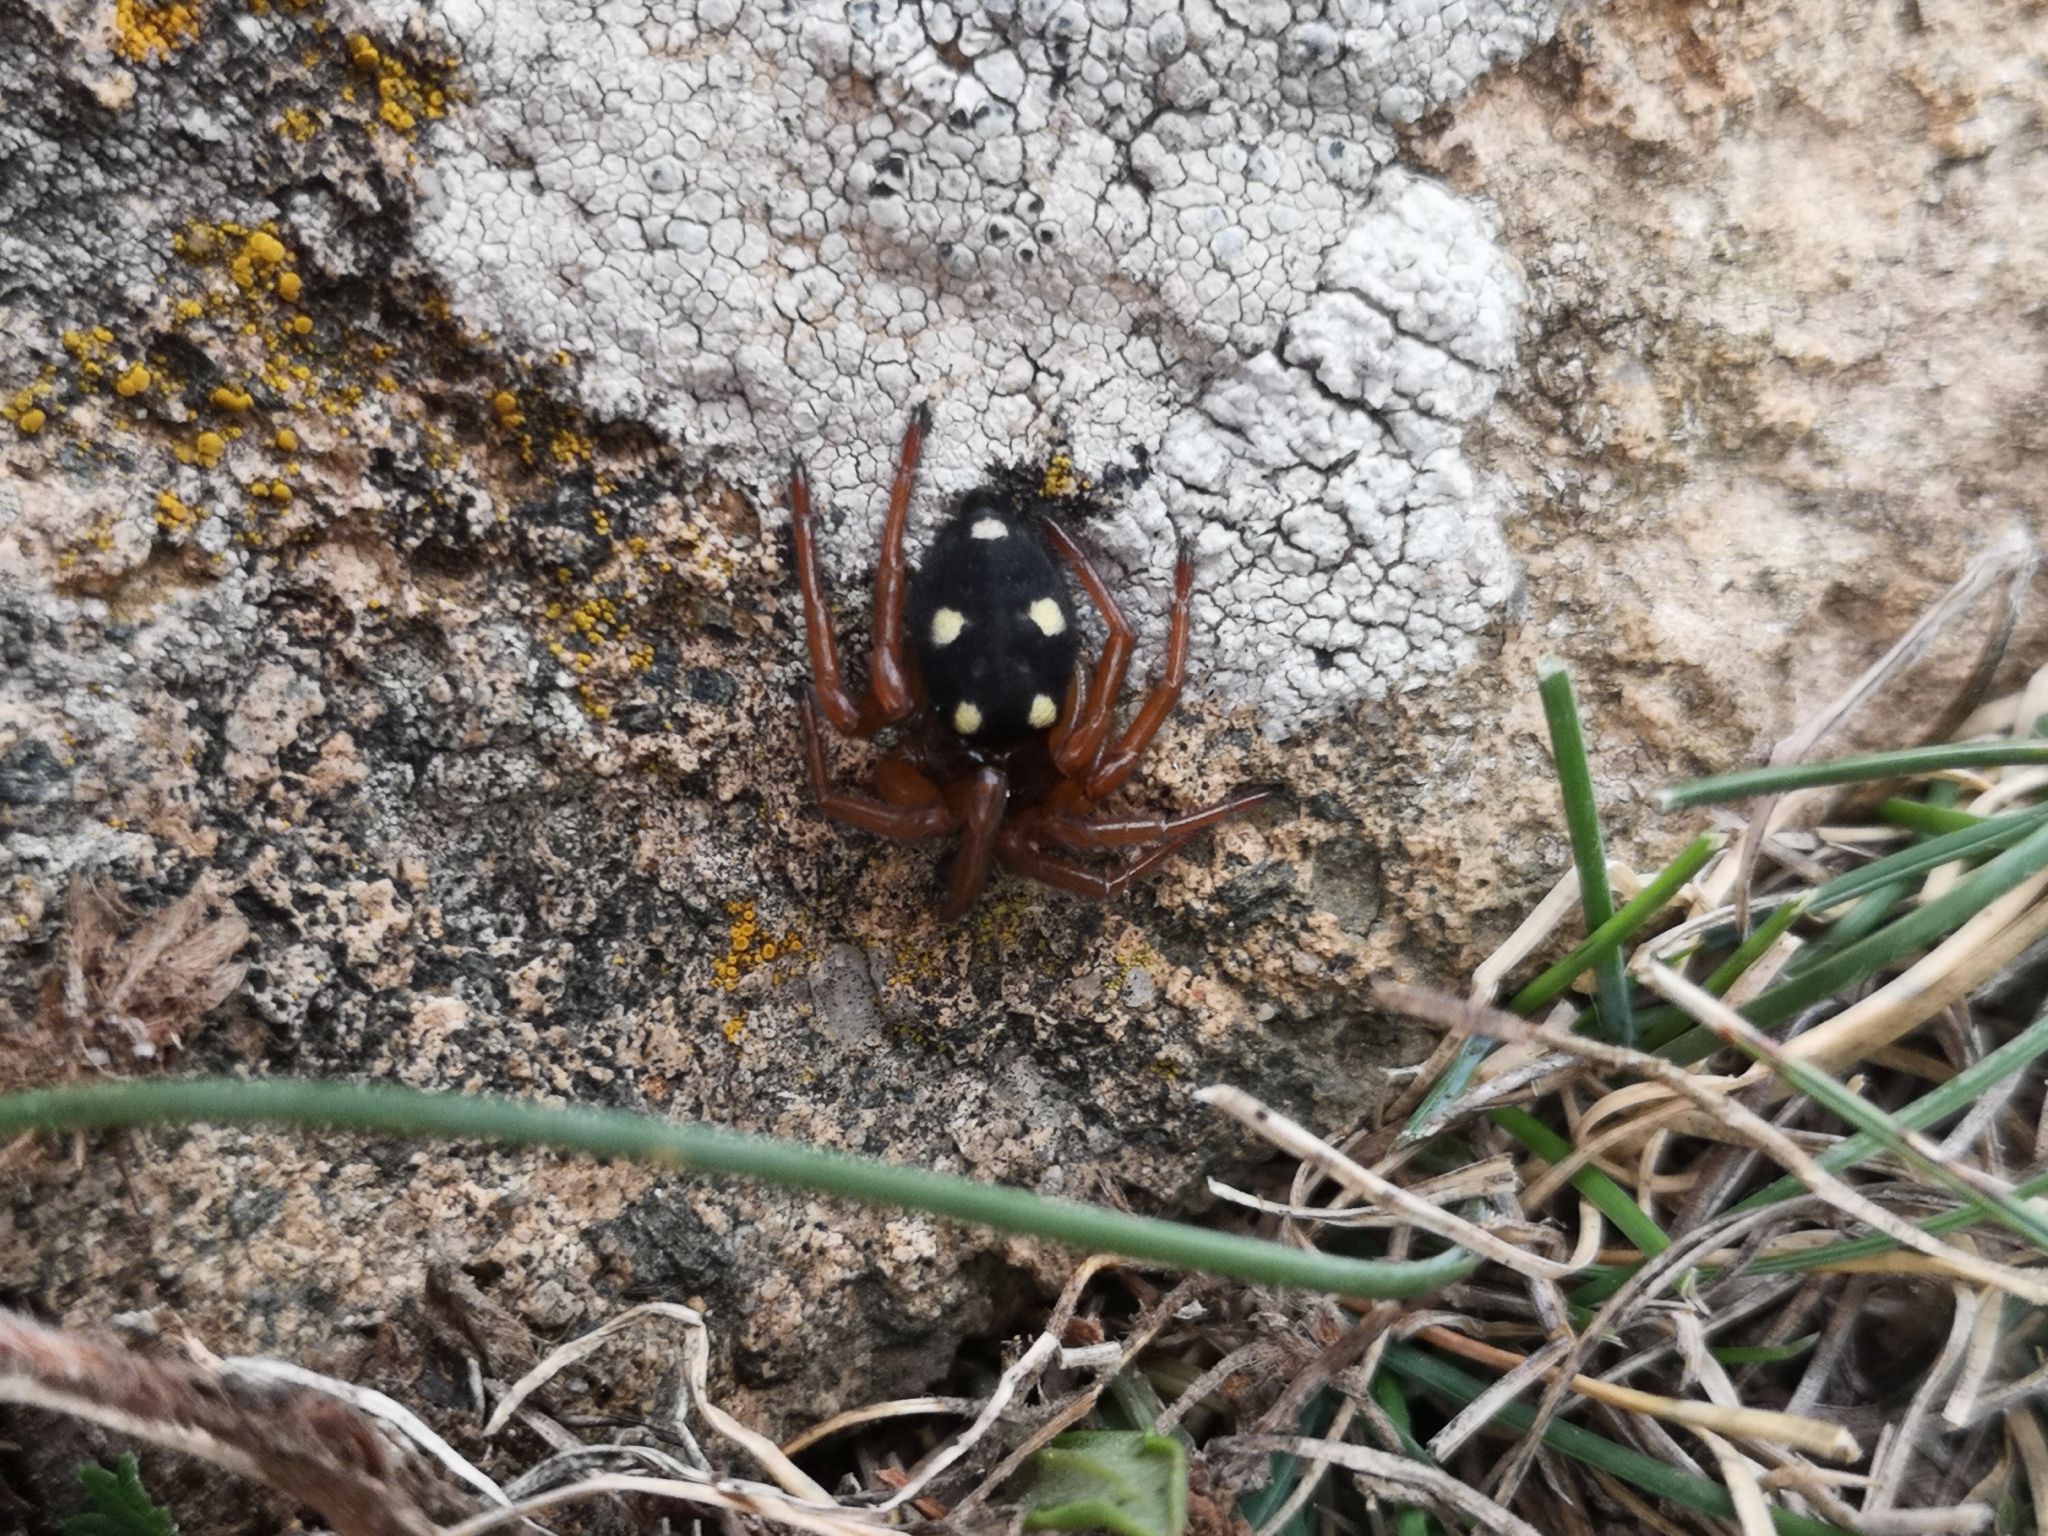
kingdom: Animalia
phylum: Arthropoda
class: Arachnida
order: Araneae
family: Oecobiidae
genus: Uroctea
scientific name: Uroctea durandi
